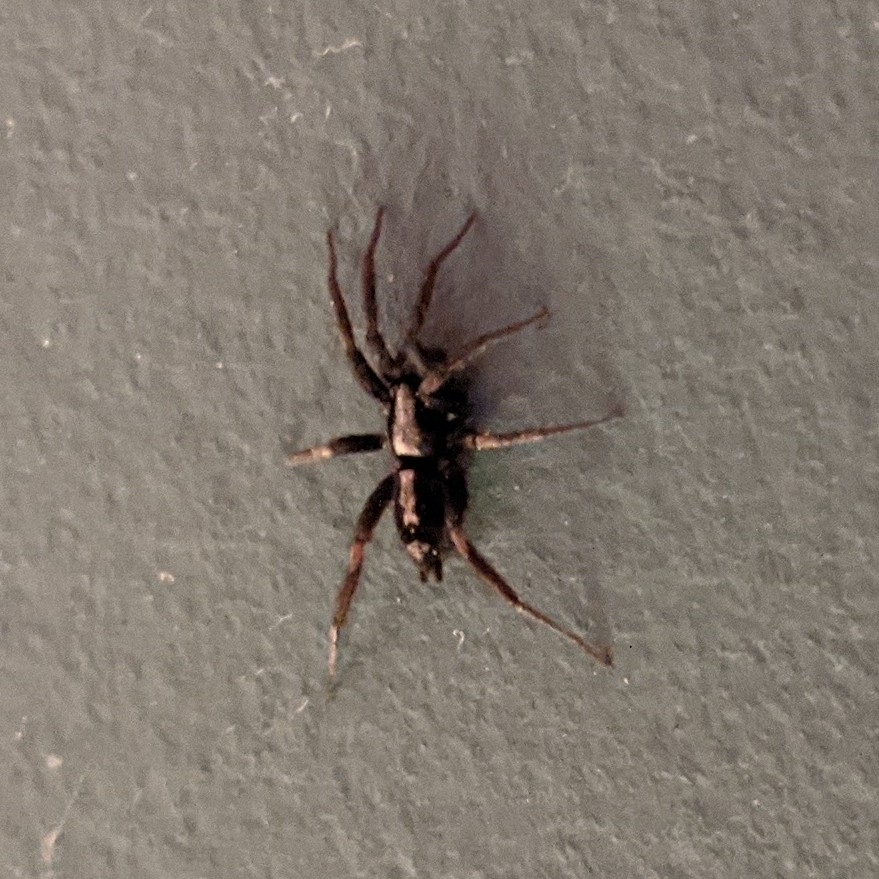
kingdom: Animalia
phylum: Arthropoda
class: Arachnida
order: Araneae
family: Gnaphosidae
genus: Herpyllus
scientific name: Herpyllus ecclesiasticus
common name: Eastern parson spider
